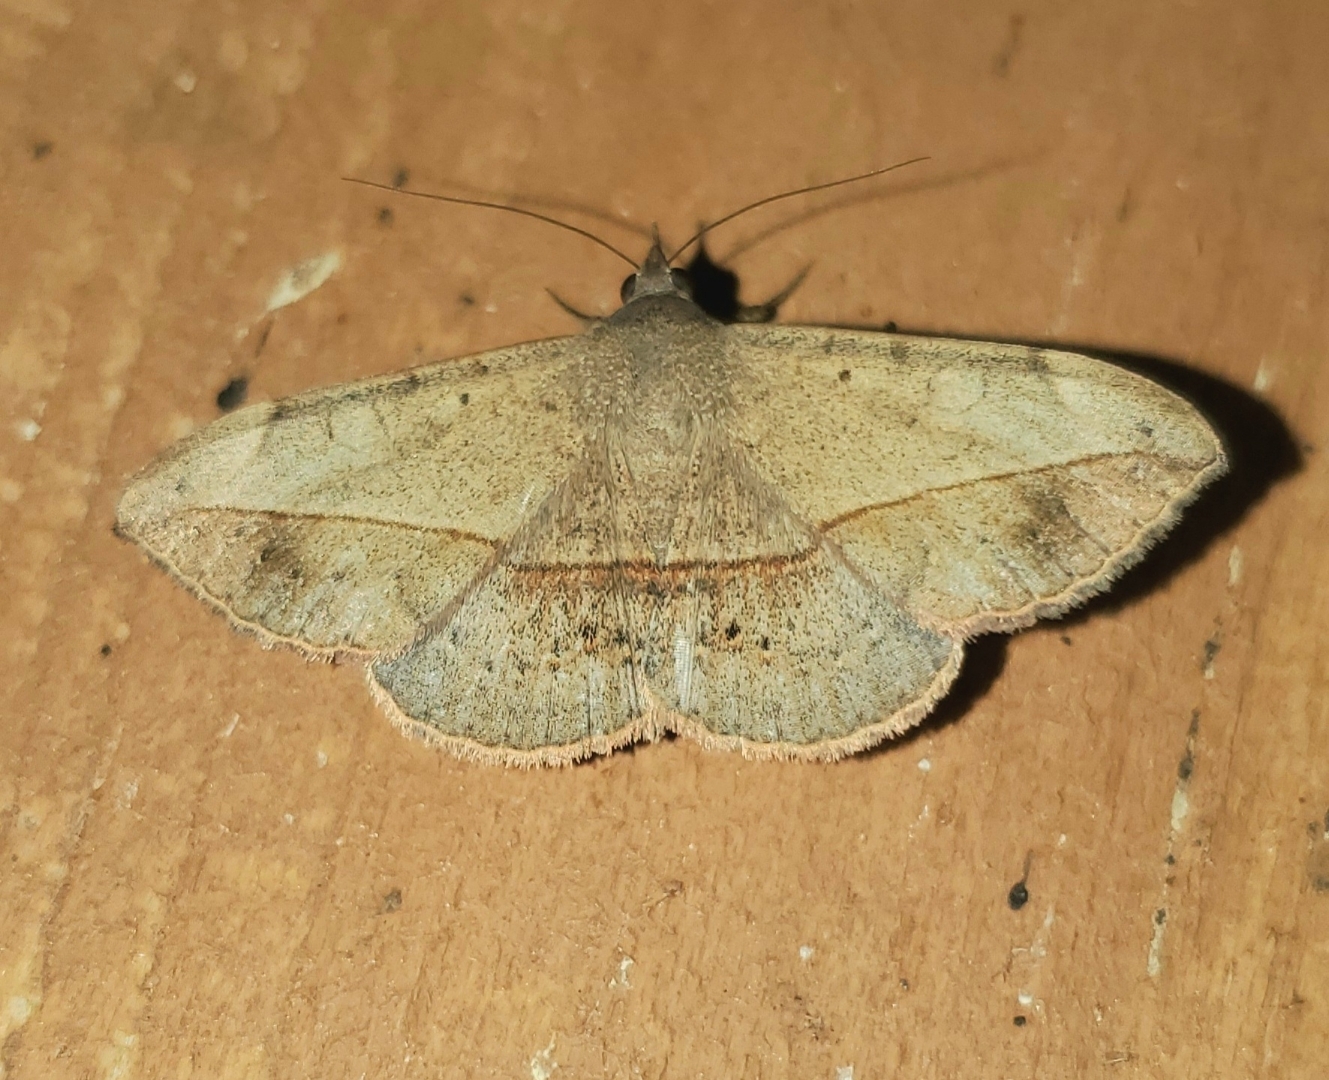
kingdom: Animalia
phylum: Arthropoda
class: Insecta
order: Lepidoptera
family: Erebidae
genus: Anticarsia
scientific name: Anticarsia gemmatalis
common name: Cutworm moth
